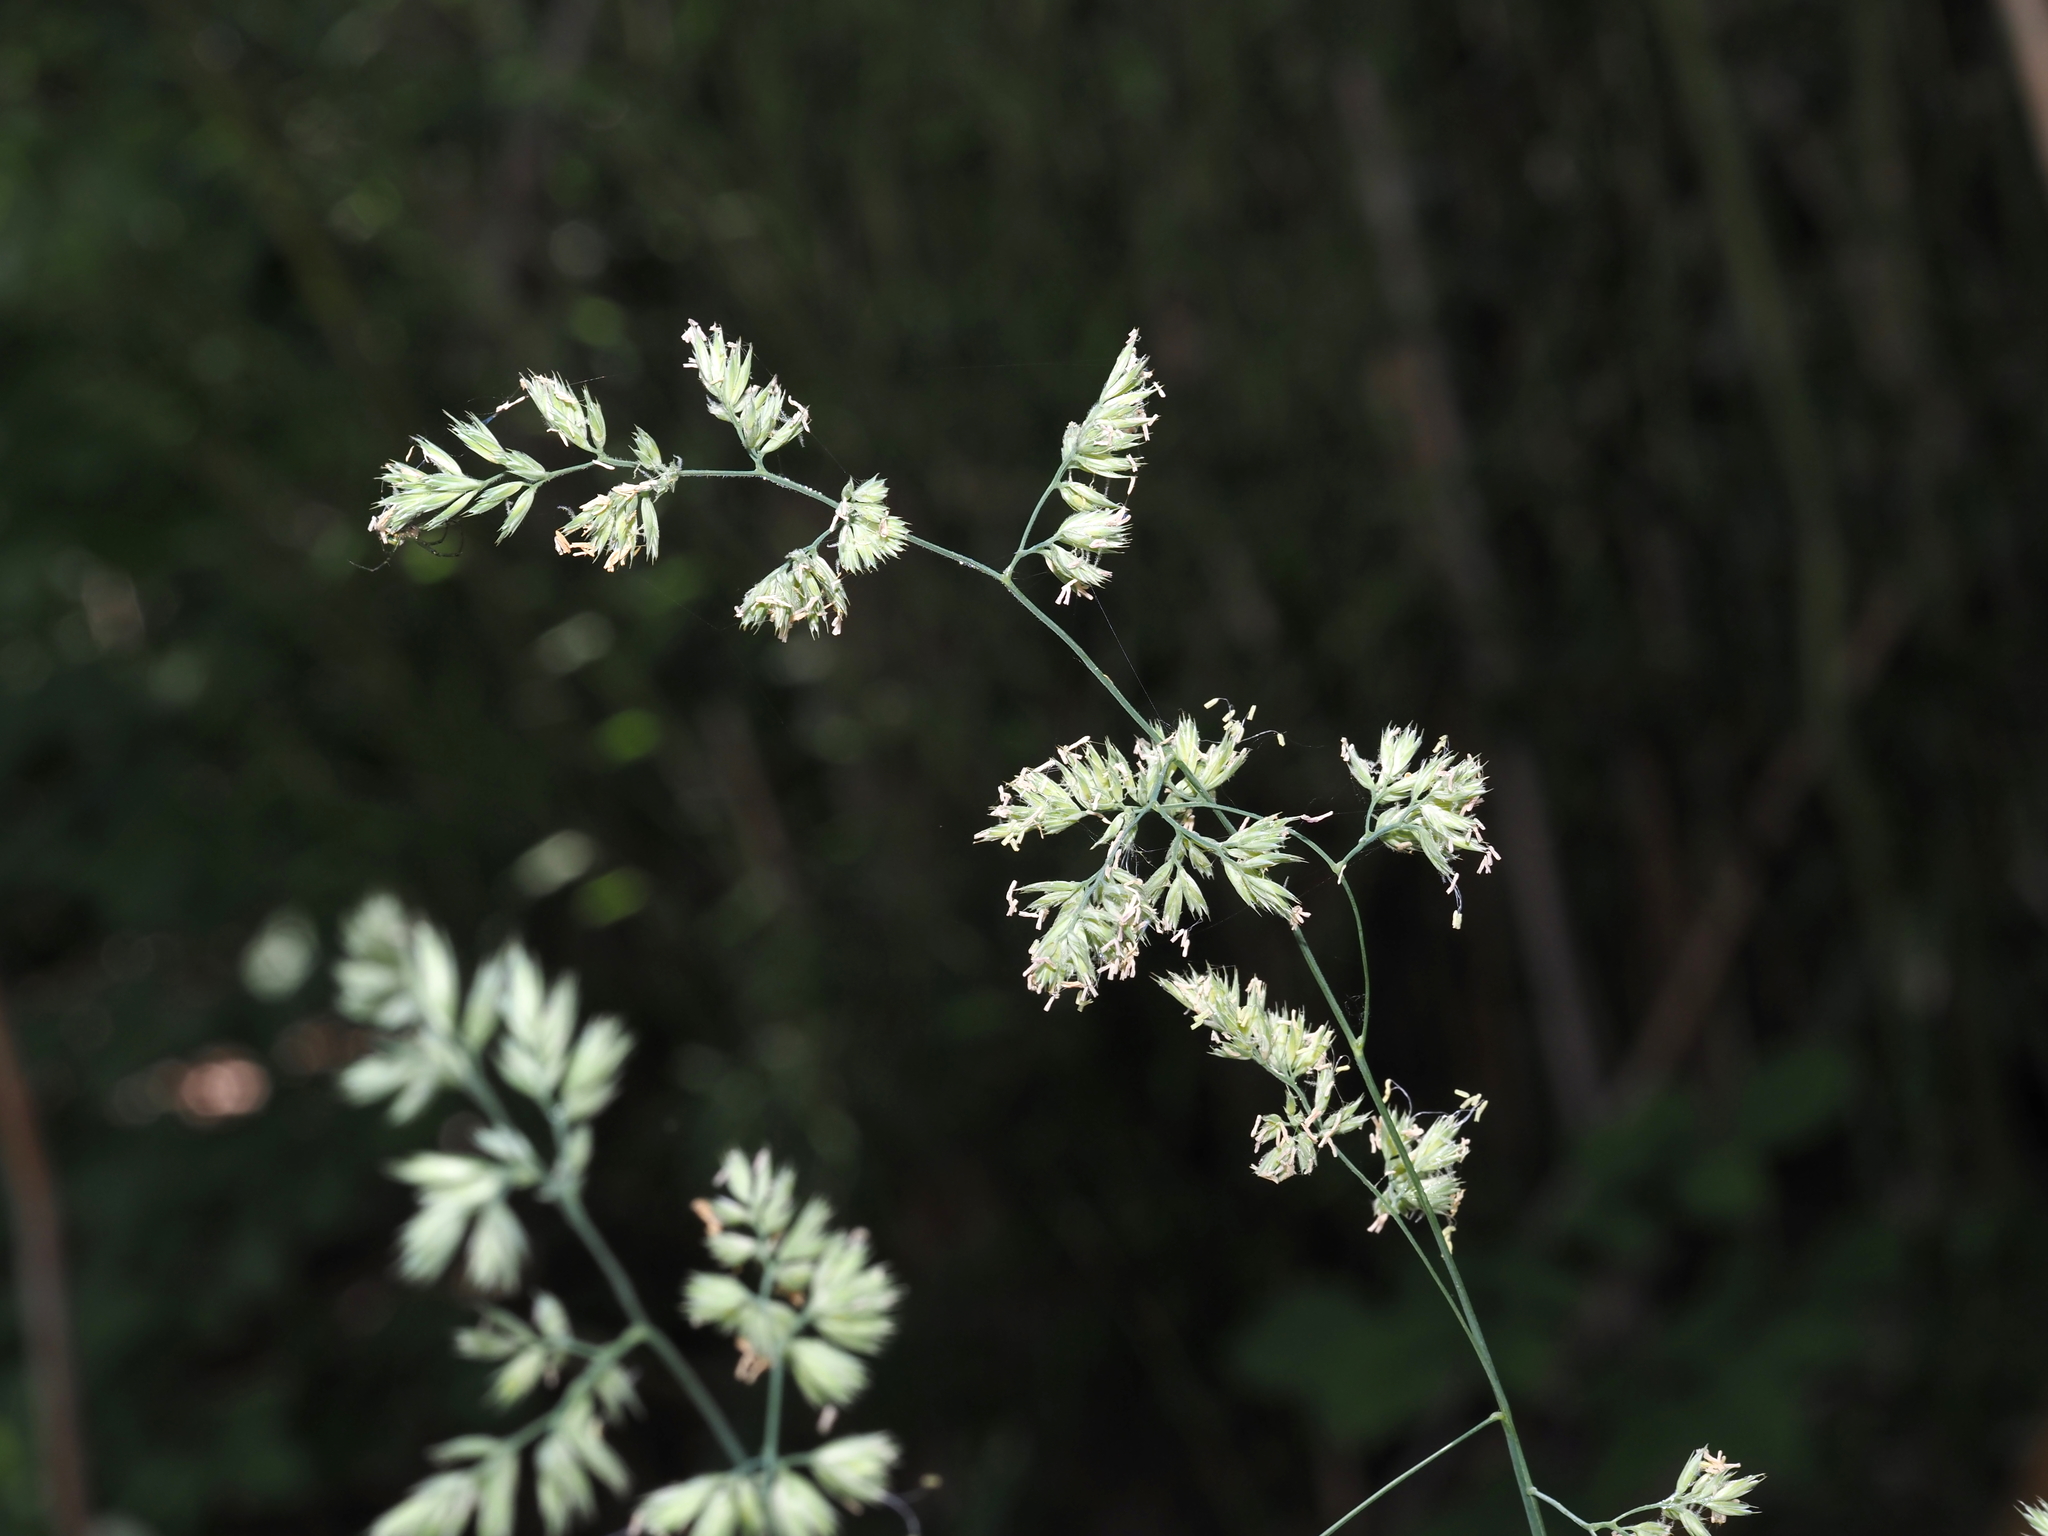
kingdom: Plantae
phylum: Tracheophyta
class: Liliopsida
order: Poales
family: Poaceae
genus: Dactylis
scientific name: Dactylis glomerata
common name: Orchardgrass
